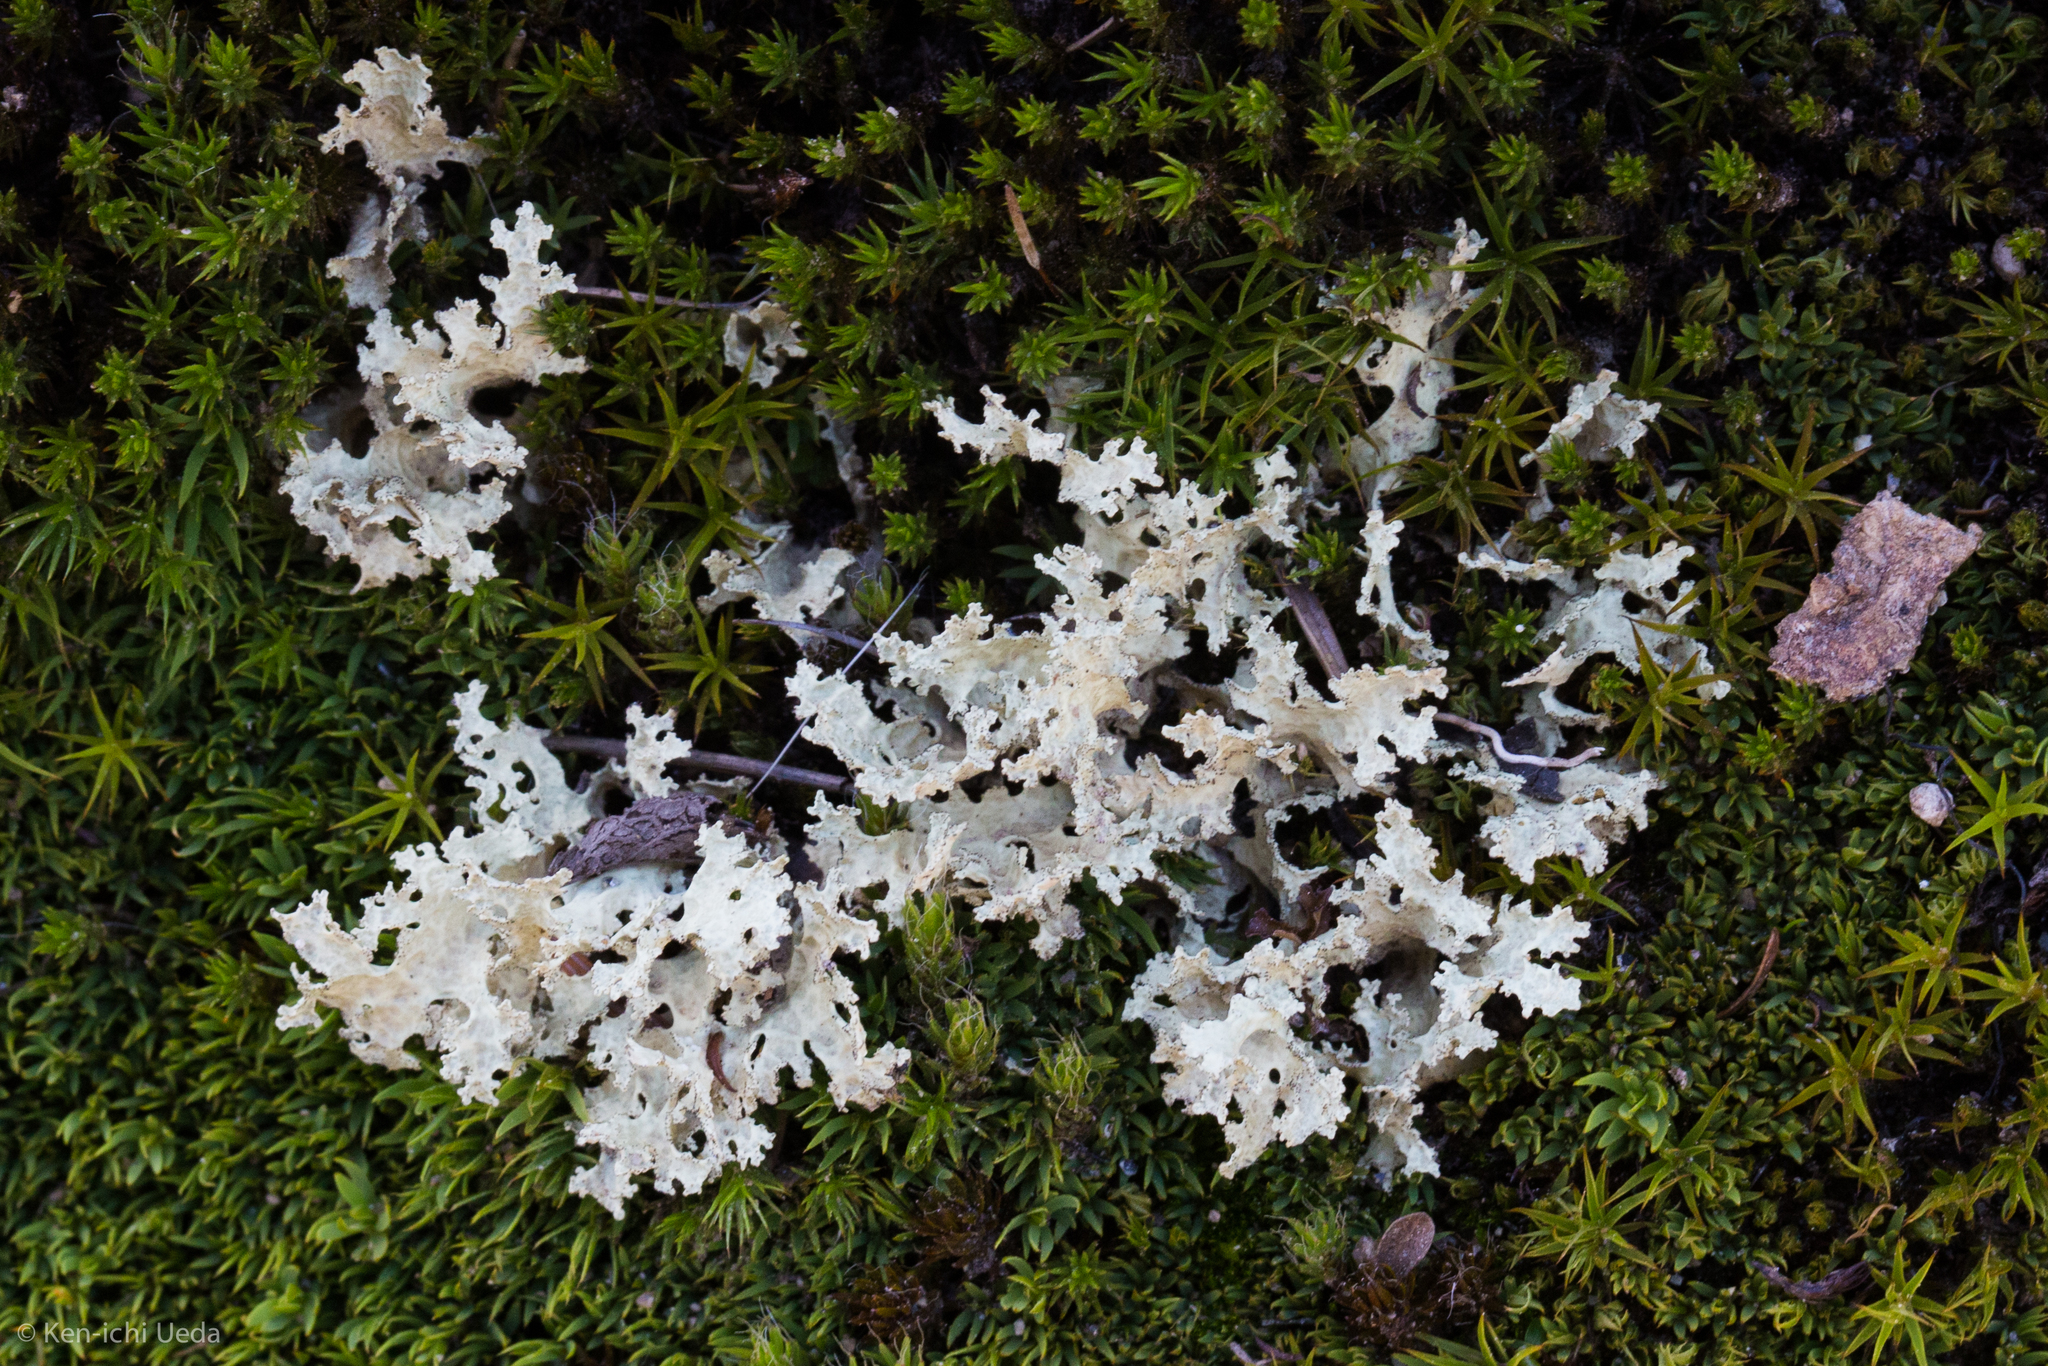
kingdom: Fungi
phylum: Ascomycota
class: Lecanoromycetes
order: Lecanorales
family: Parmeliaceae
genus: Nephromopsis
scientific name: Nephromopsis nivalis
